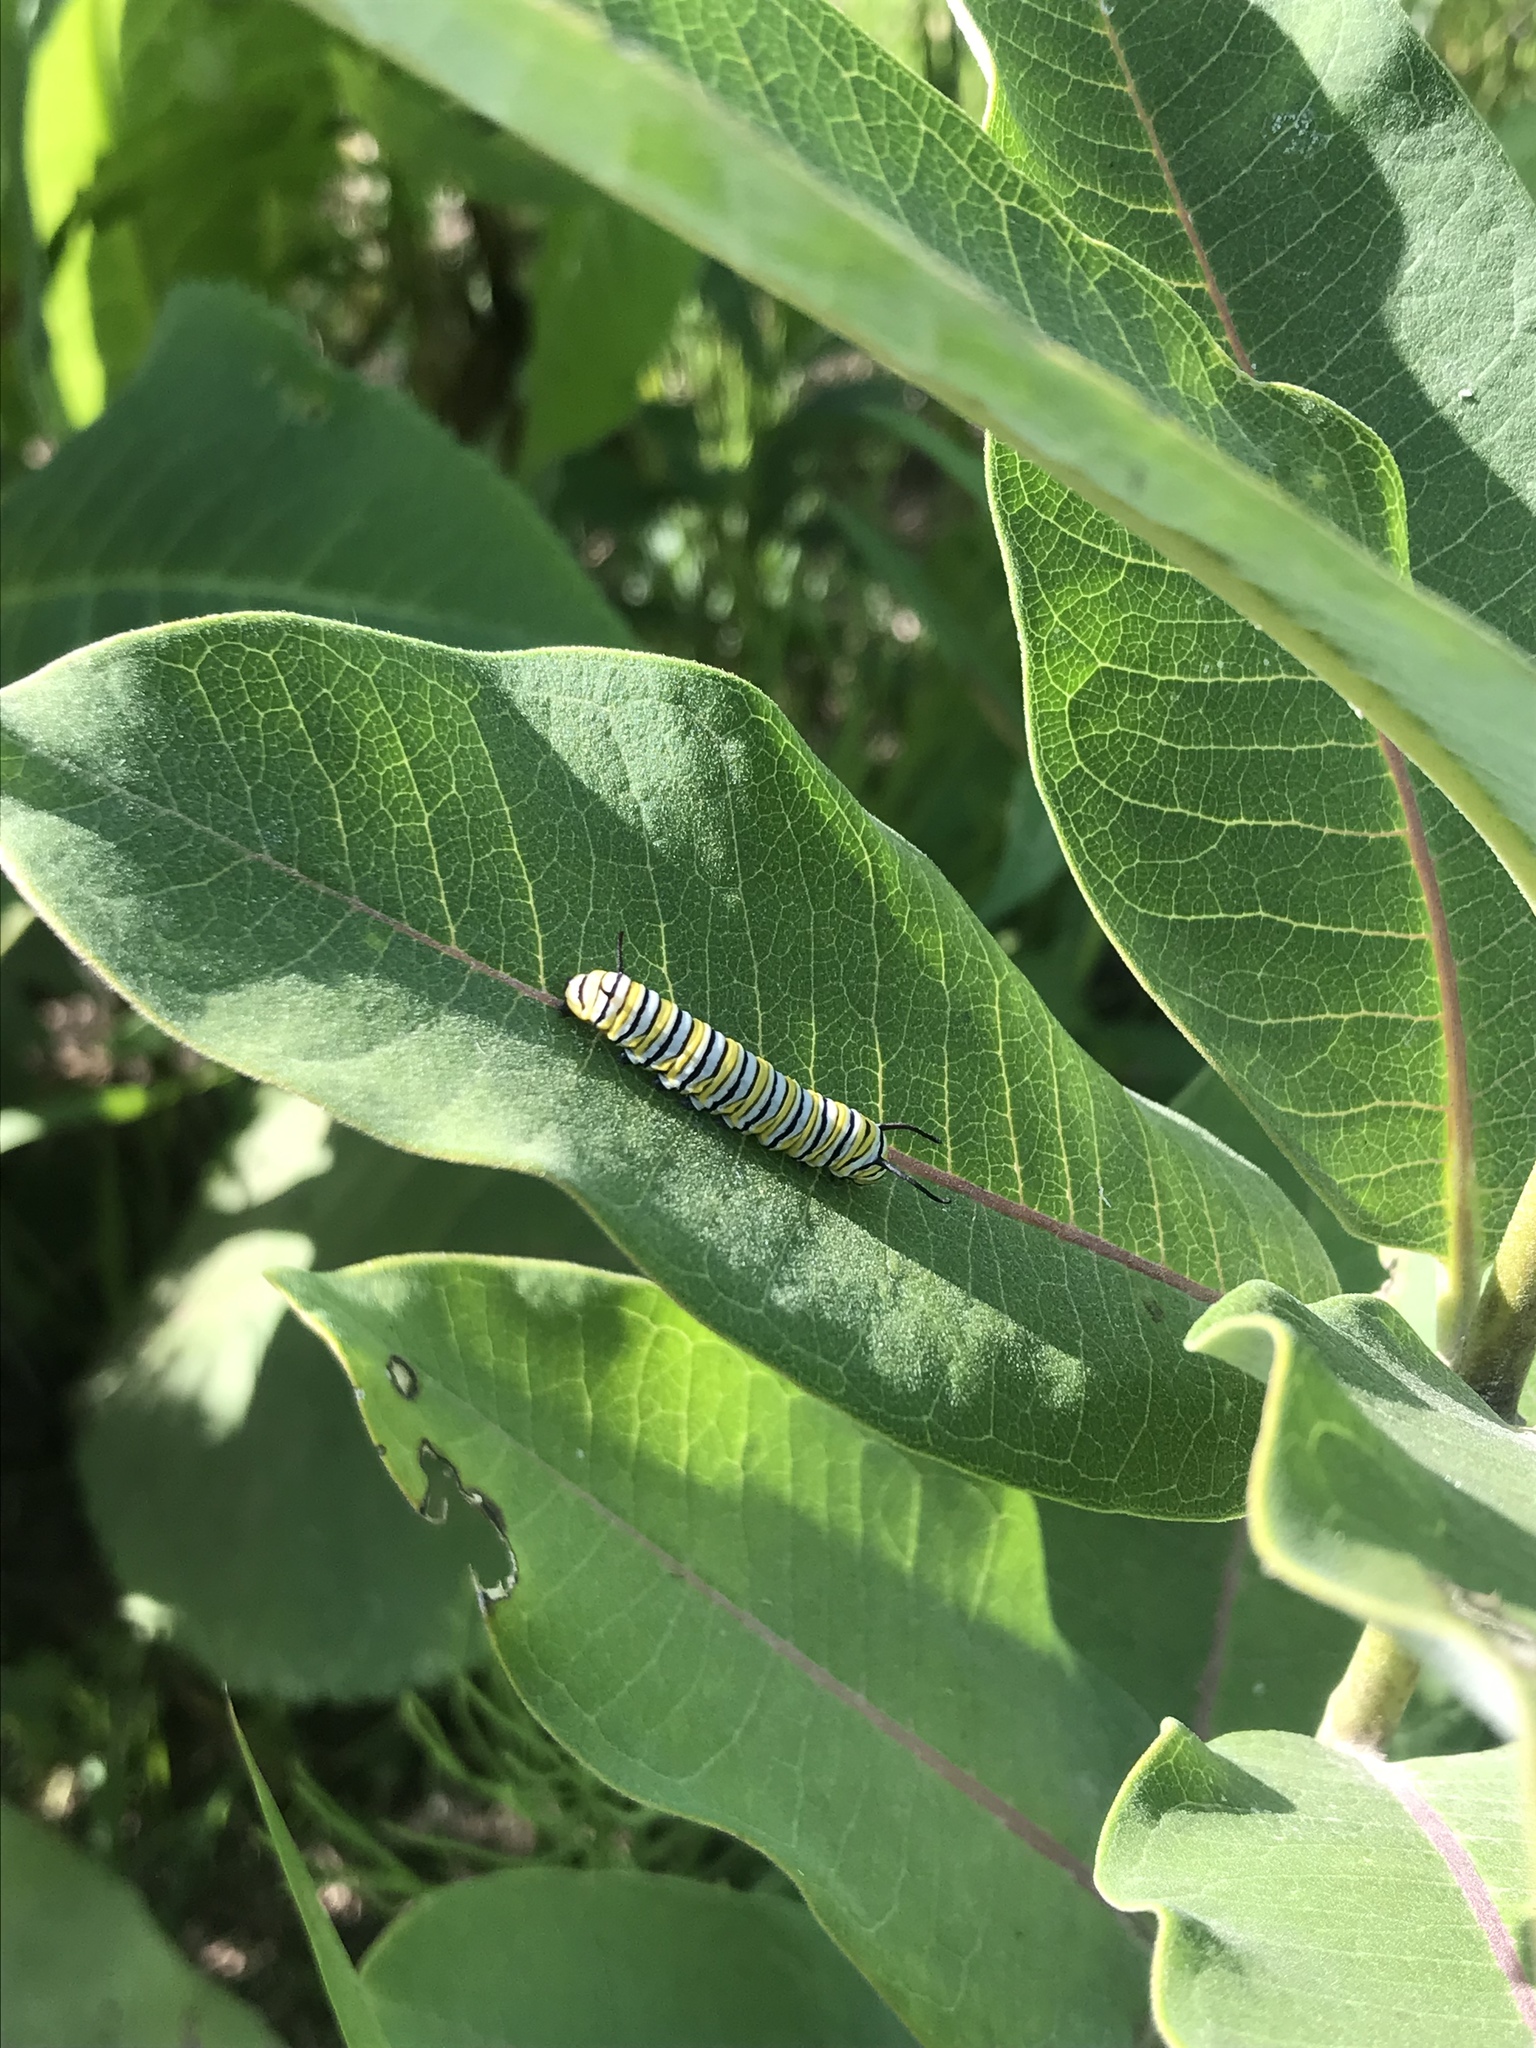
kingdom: Animalia
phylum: Arthropoda
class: Insecta
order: Lepidoptera
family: Nymphalidae
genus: Danaus
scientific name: Danaus plexippus
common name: Monarch
